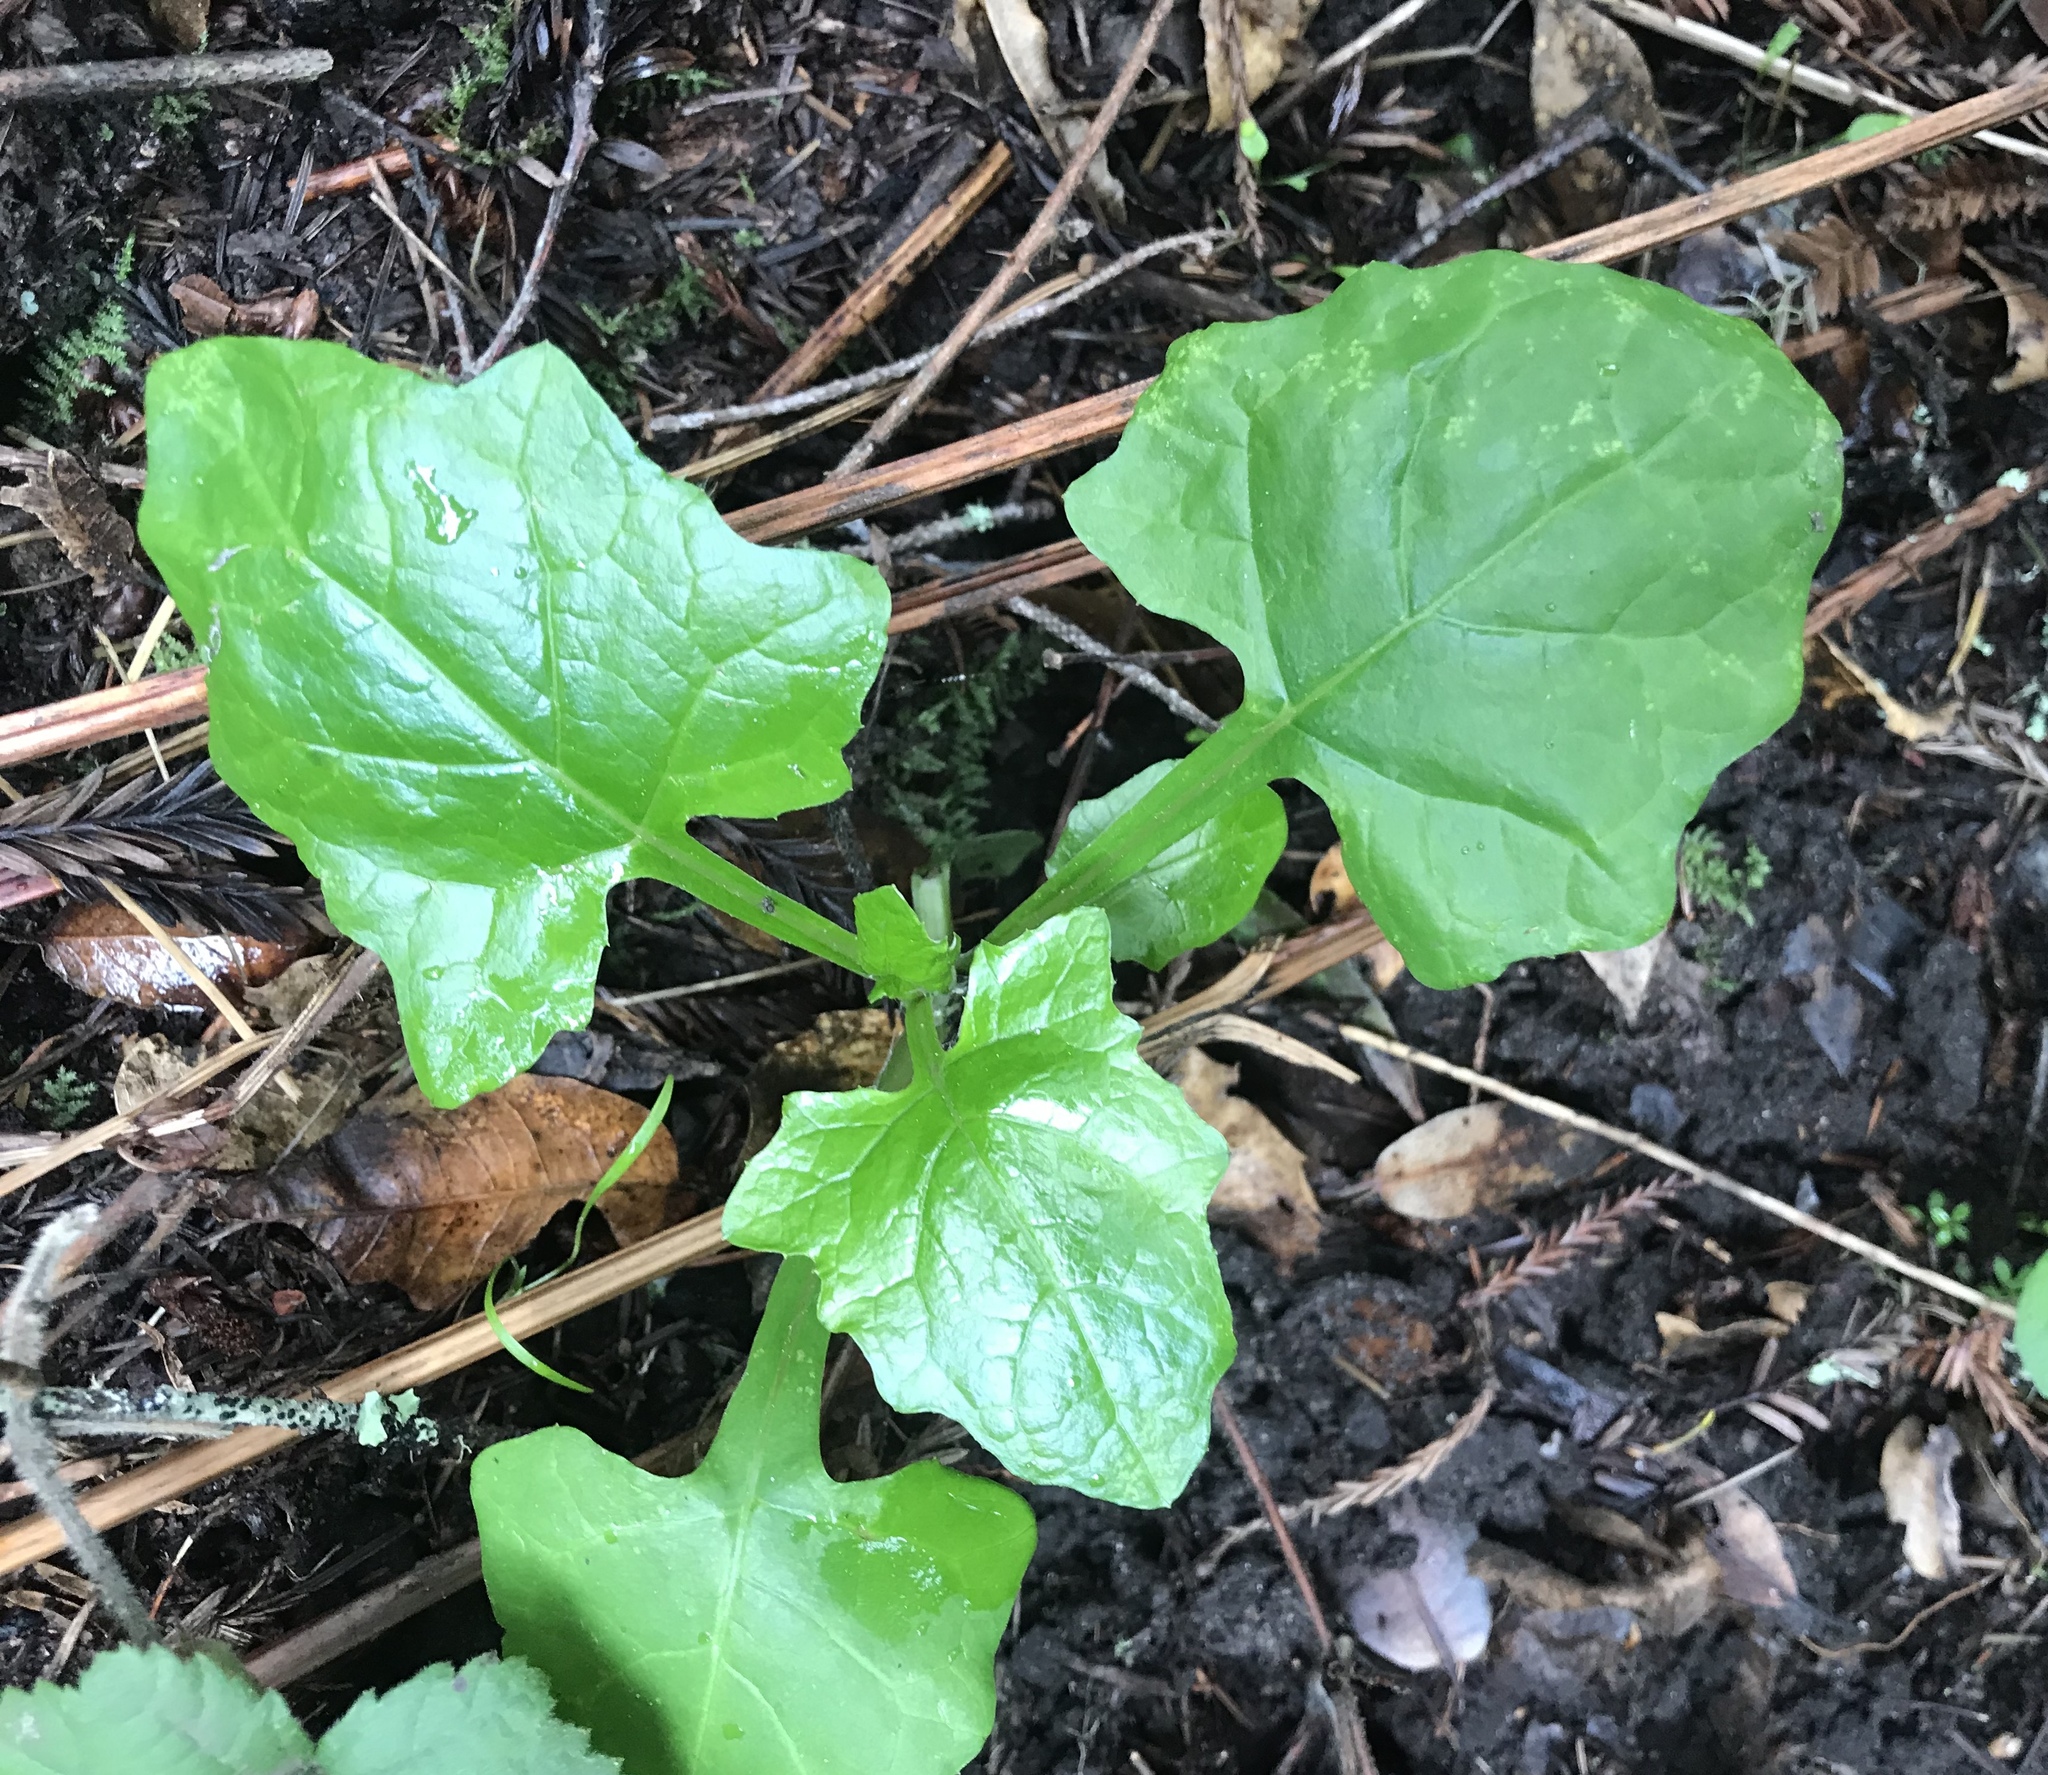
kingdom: Plantae
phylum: Tracheophyta
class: Magnoliopsida
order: Asterales
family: Asteraceae
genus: Adenocaulon
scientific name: Adenocaulon bicolor
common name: Trailplant
